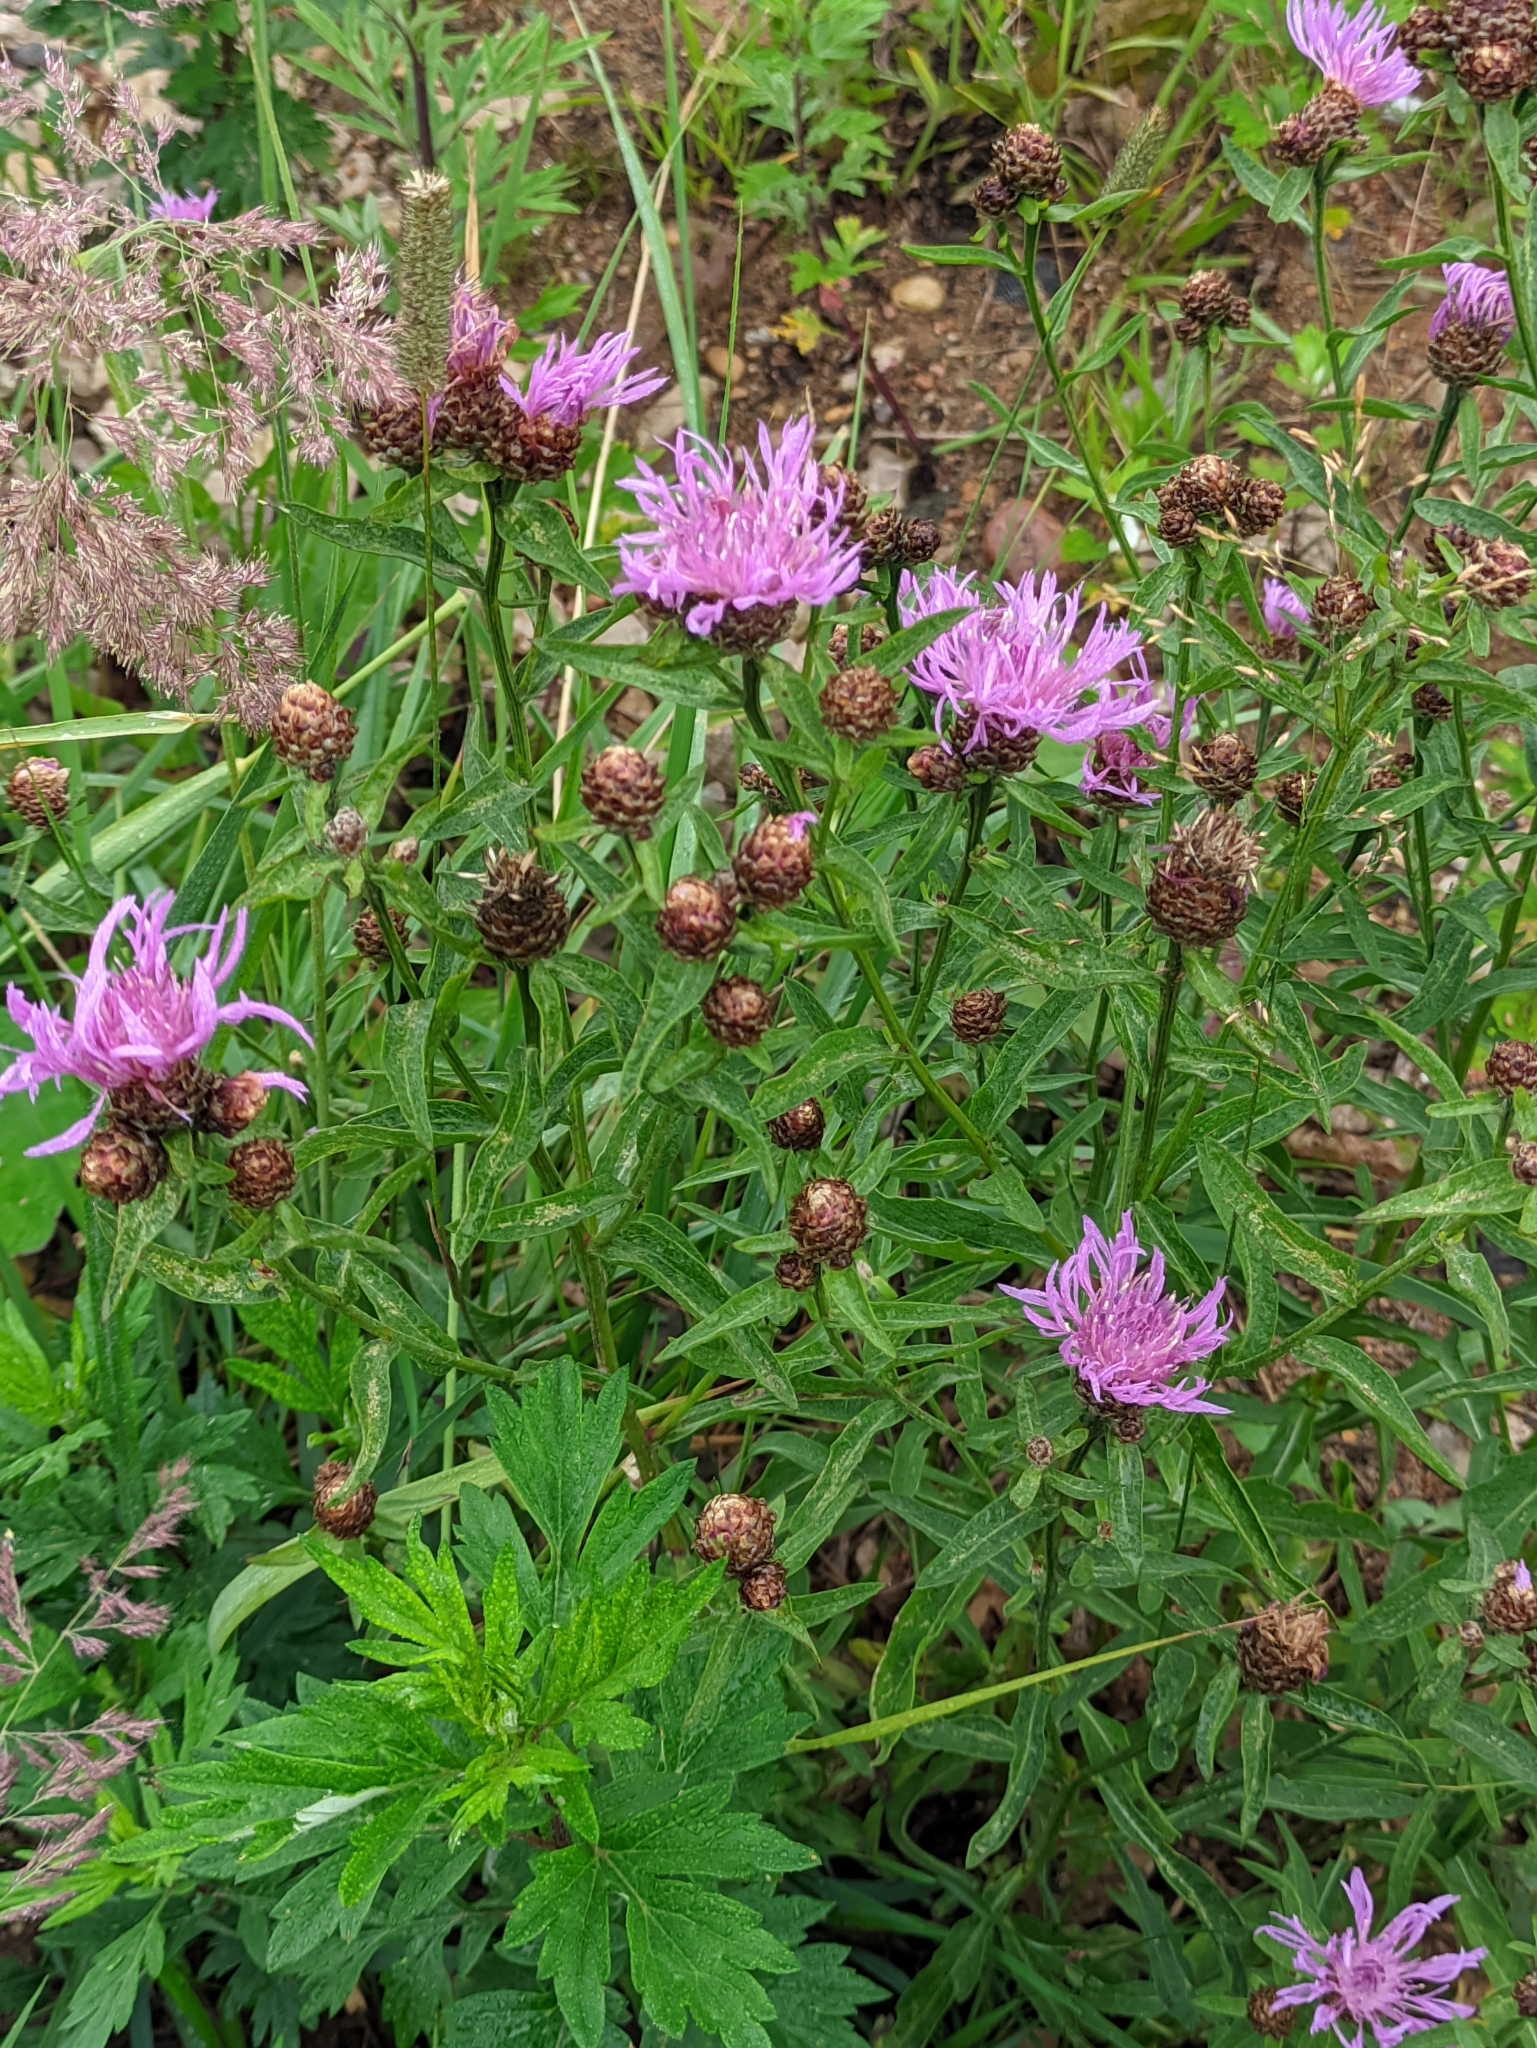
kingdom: Plantae
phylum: Tracheophyta
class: Magnoliopsida
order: Asterales
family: Asteraceae
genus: Centaurea
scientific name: Centaurea jacea
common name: Brown knapweed
